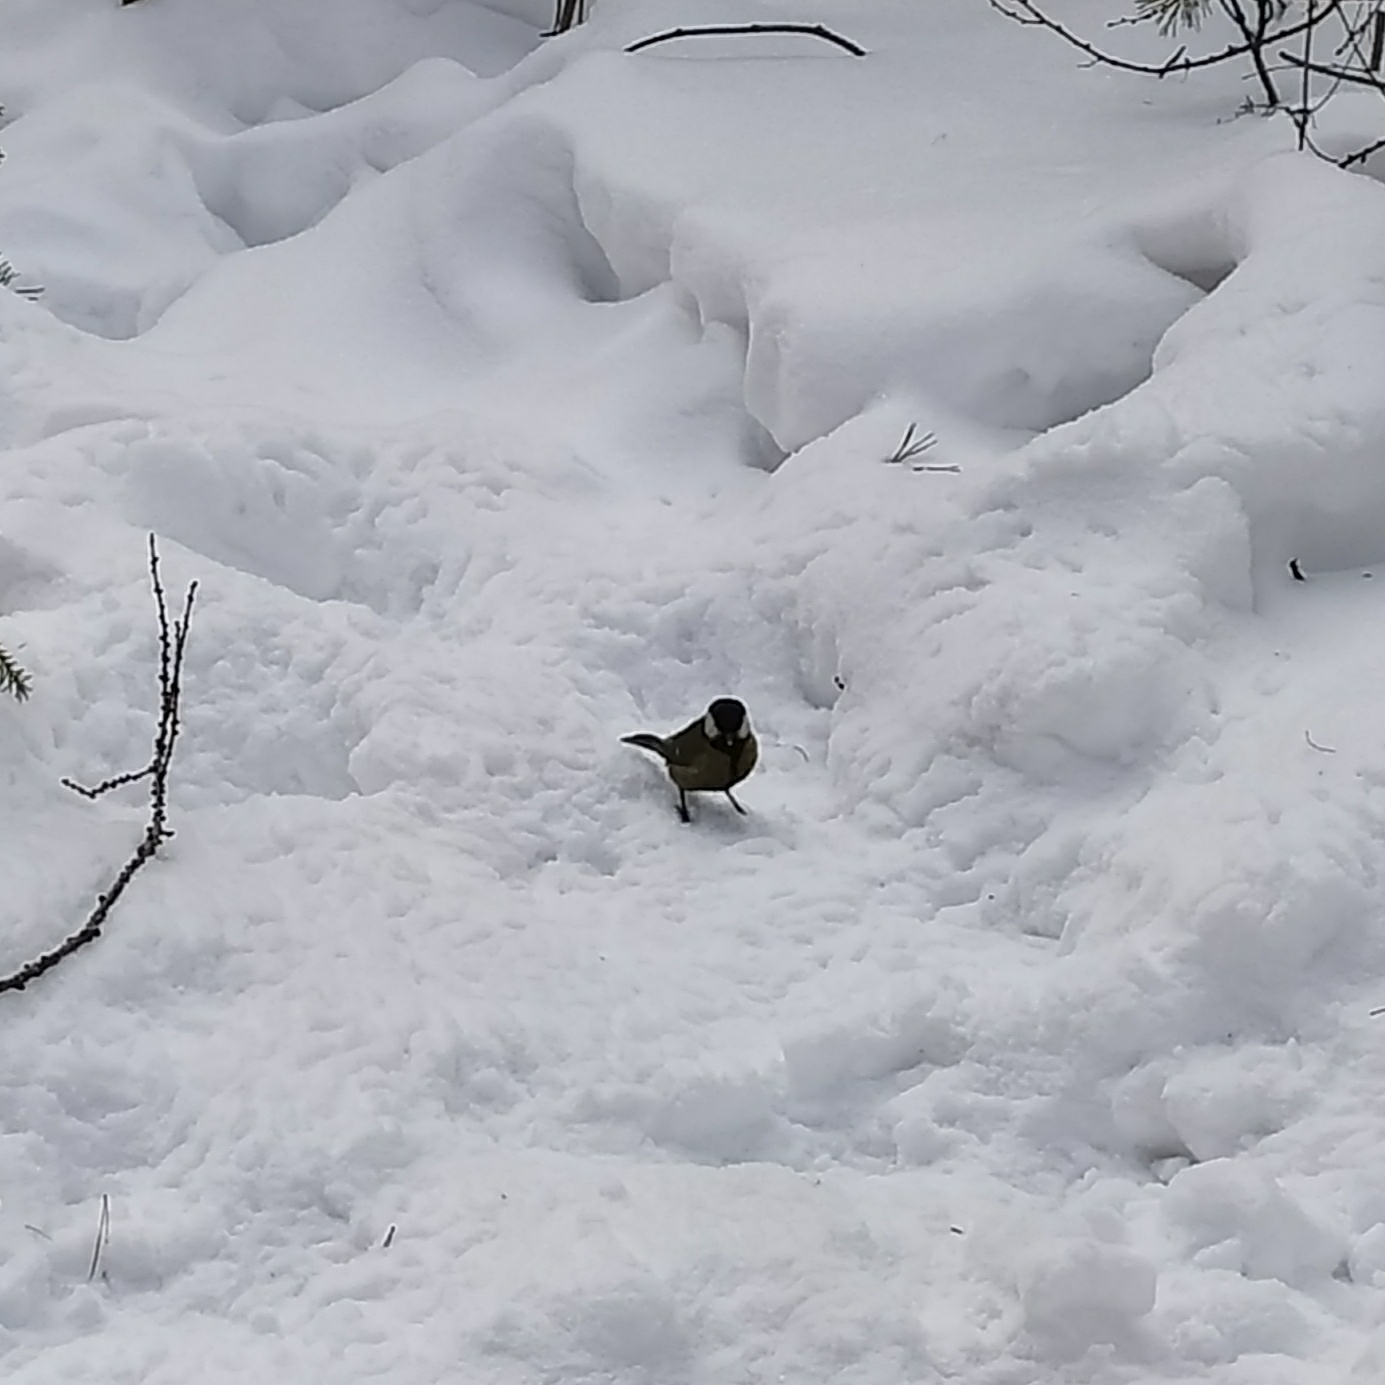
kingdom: Animalia
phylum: Chordata
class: Aves
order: Passeriformes
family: Paridae
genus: Parus
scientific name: Parus major
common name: Great tit
